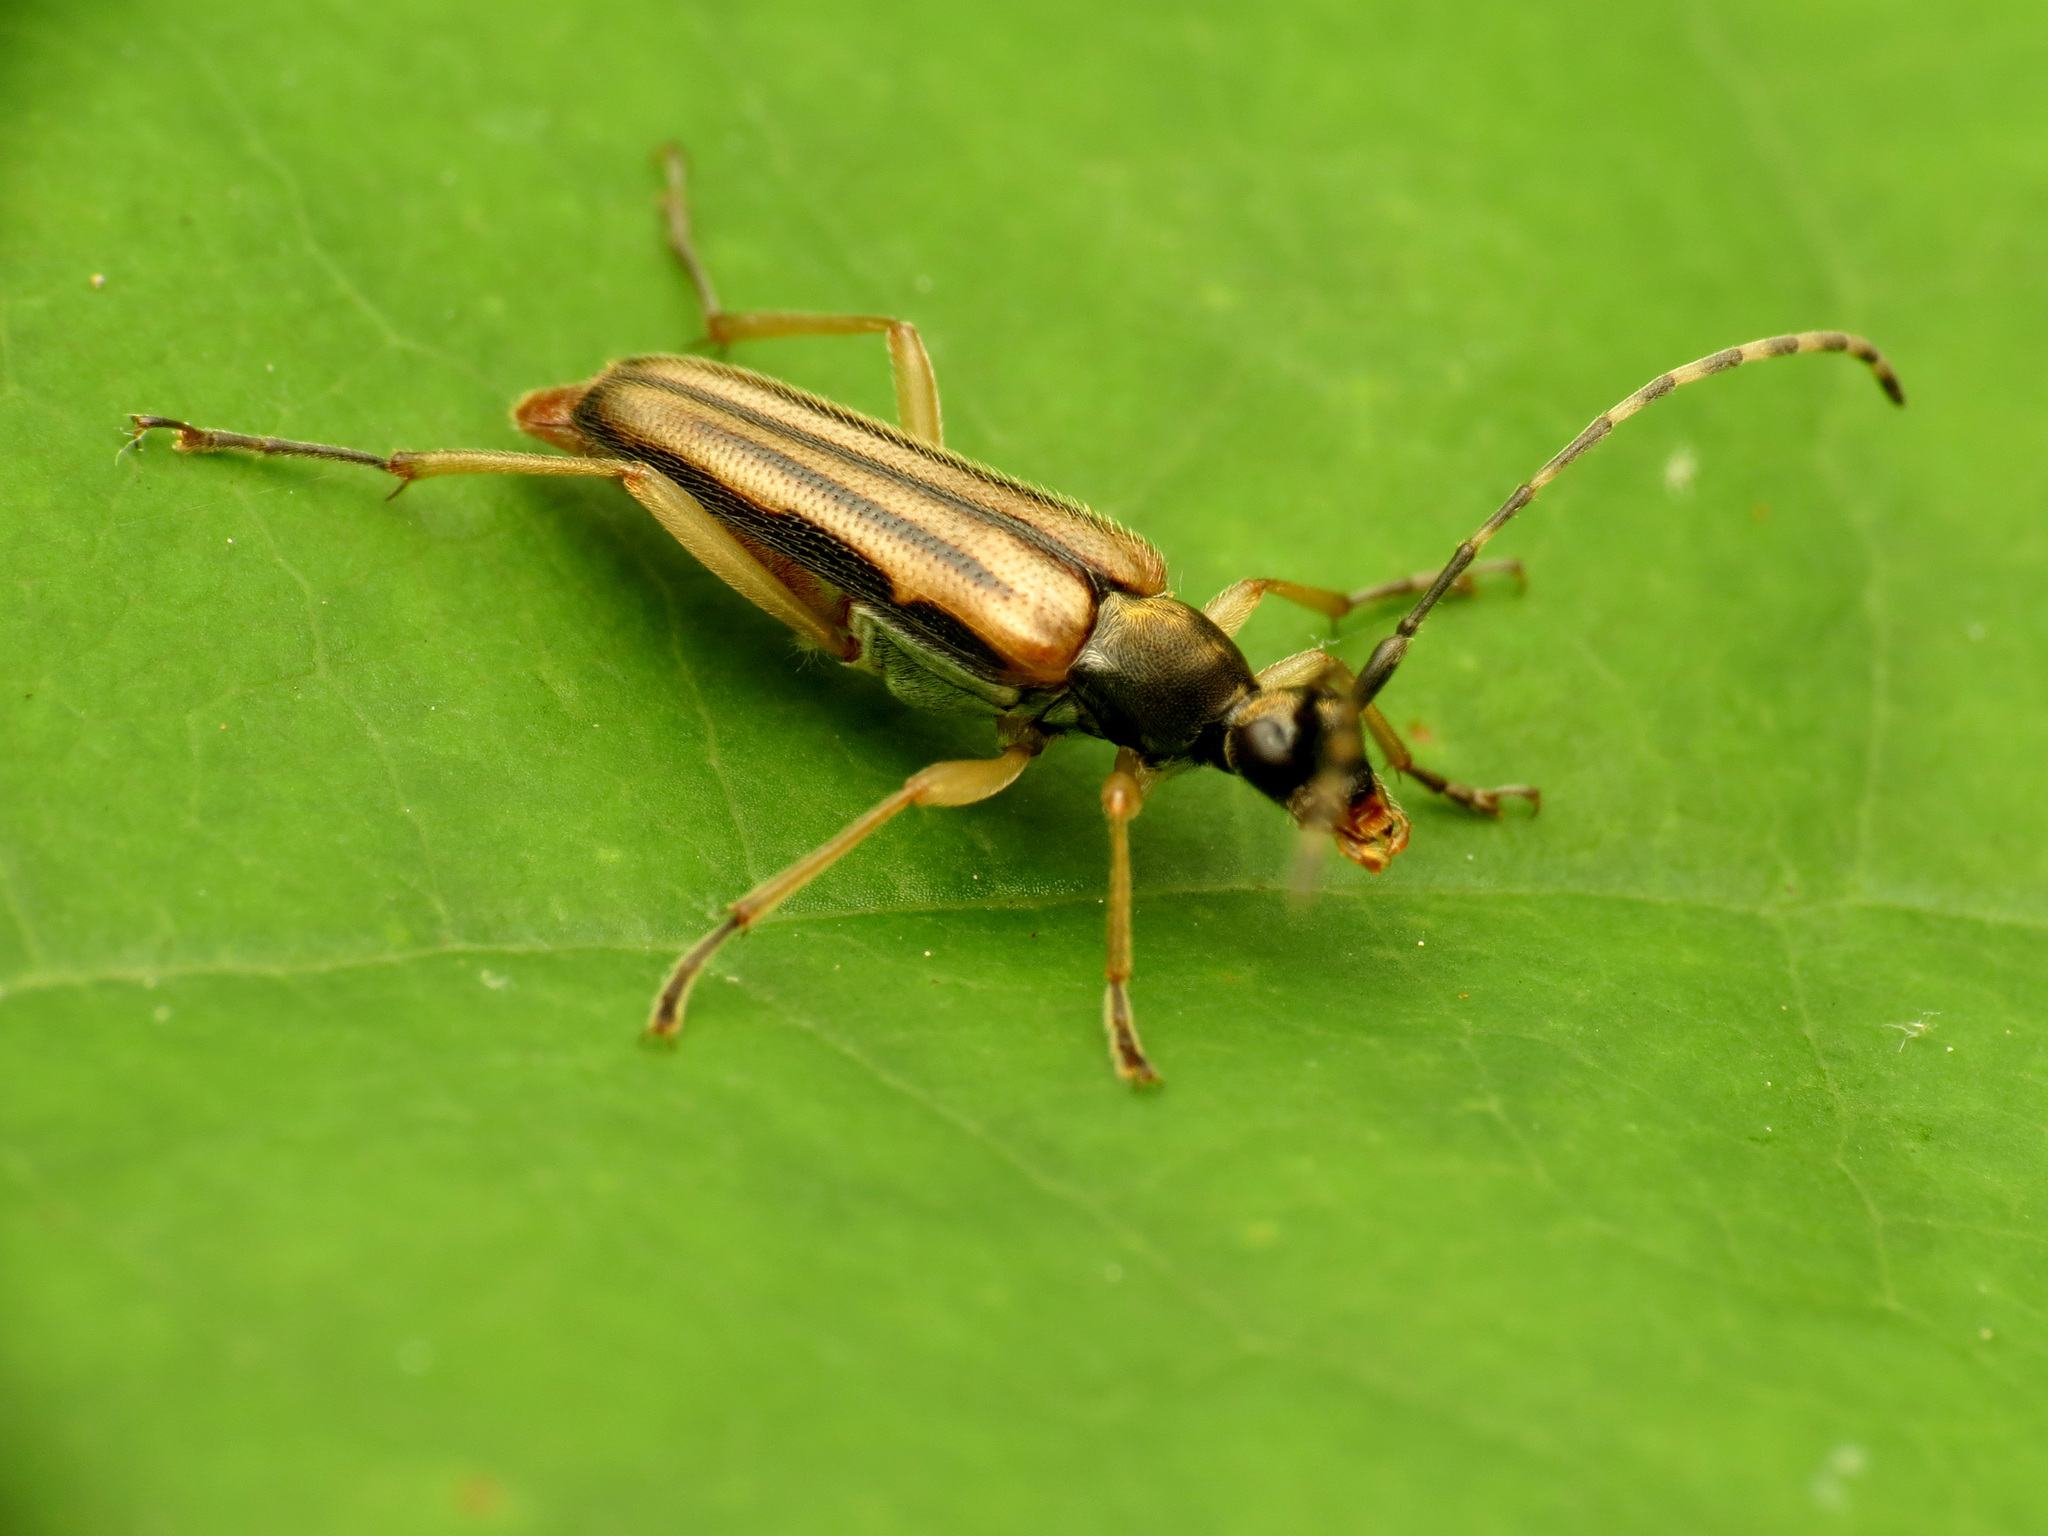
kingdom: Animalia
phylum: Arthropoda
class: Insecta
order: Coleoptera
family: Cerambycidae
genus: Analeptura
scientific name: Analeptura lineola
